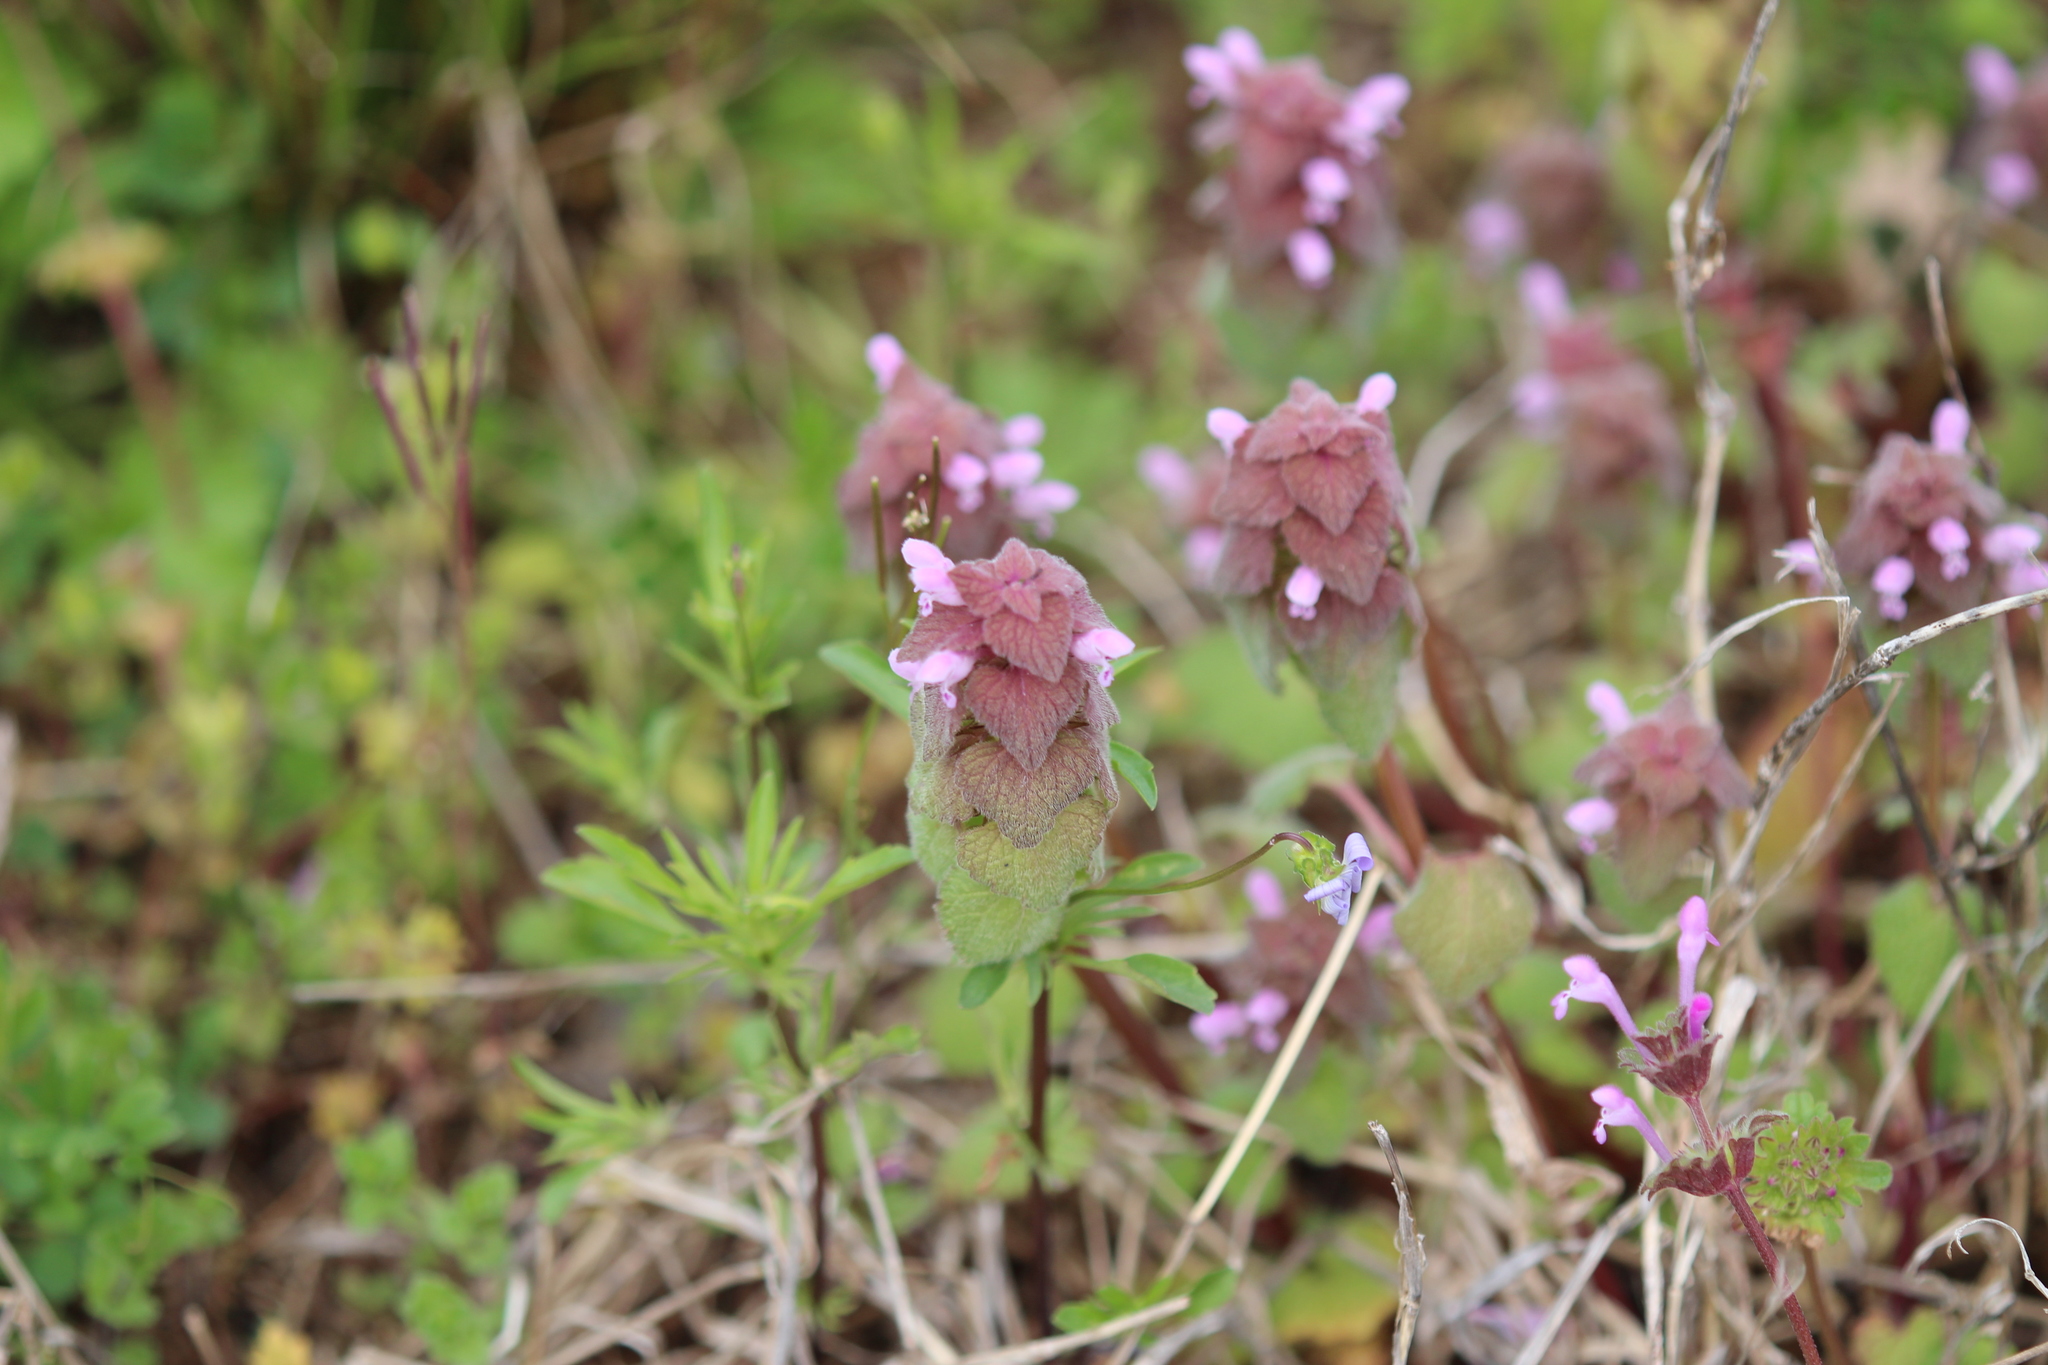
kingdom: Plantae
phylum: Tracheophyta
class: Magnoliopsida
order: Lamiales
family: Lamiaceae
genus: Lamium
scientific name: Lamium purpureum
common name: Red dead-nettle
